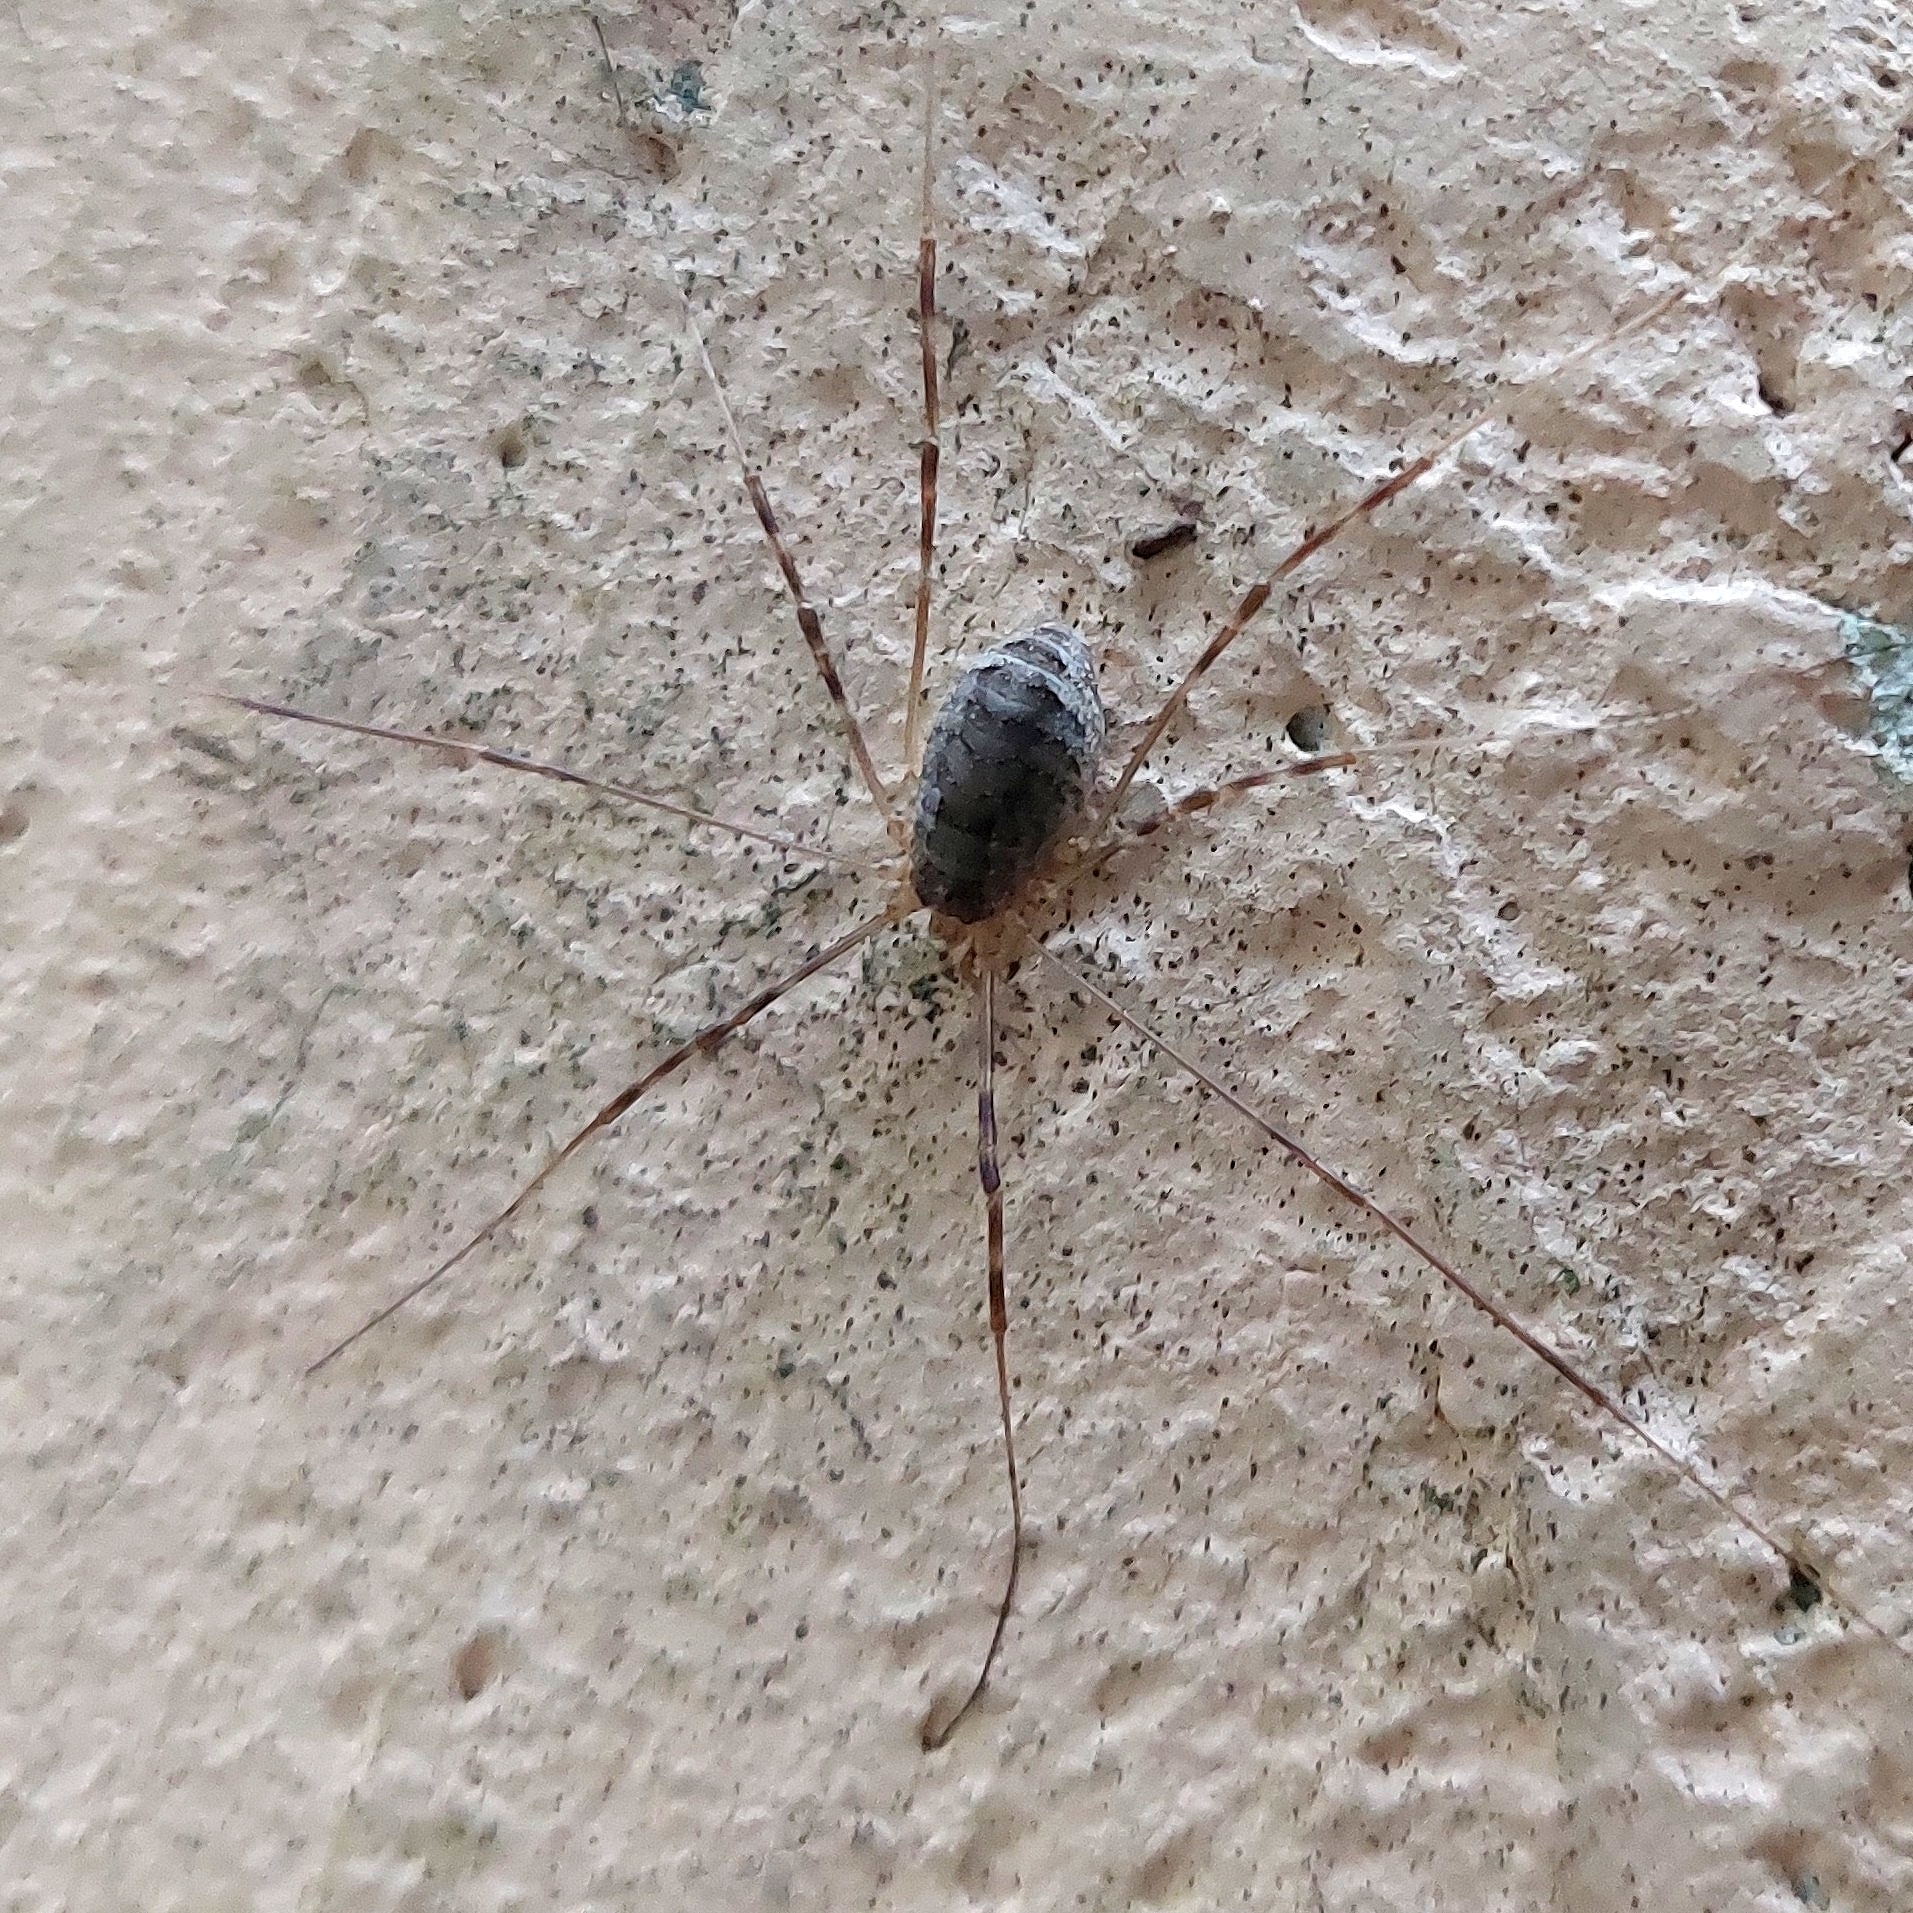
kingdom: Animalia
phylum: Arthropoda
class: Arachnida
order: Opiliones
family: Phalangiidae
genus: Opilio
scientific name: Opilio parietinus
